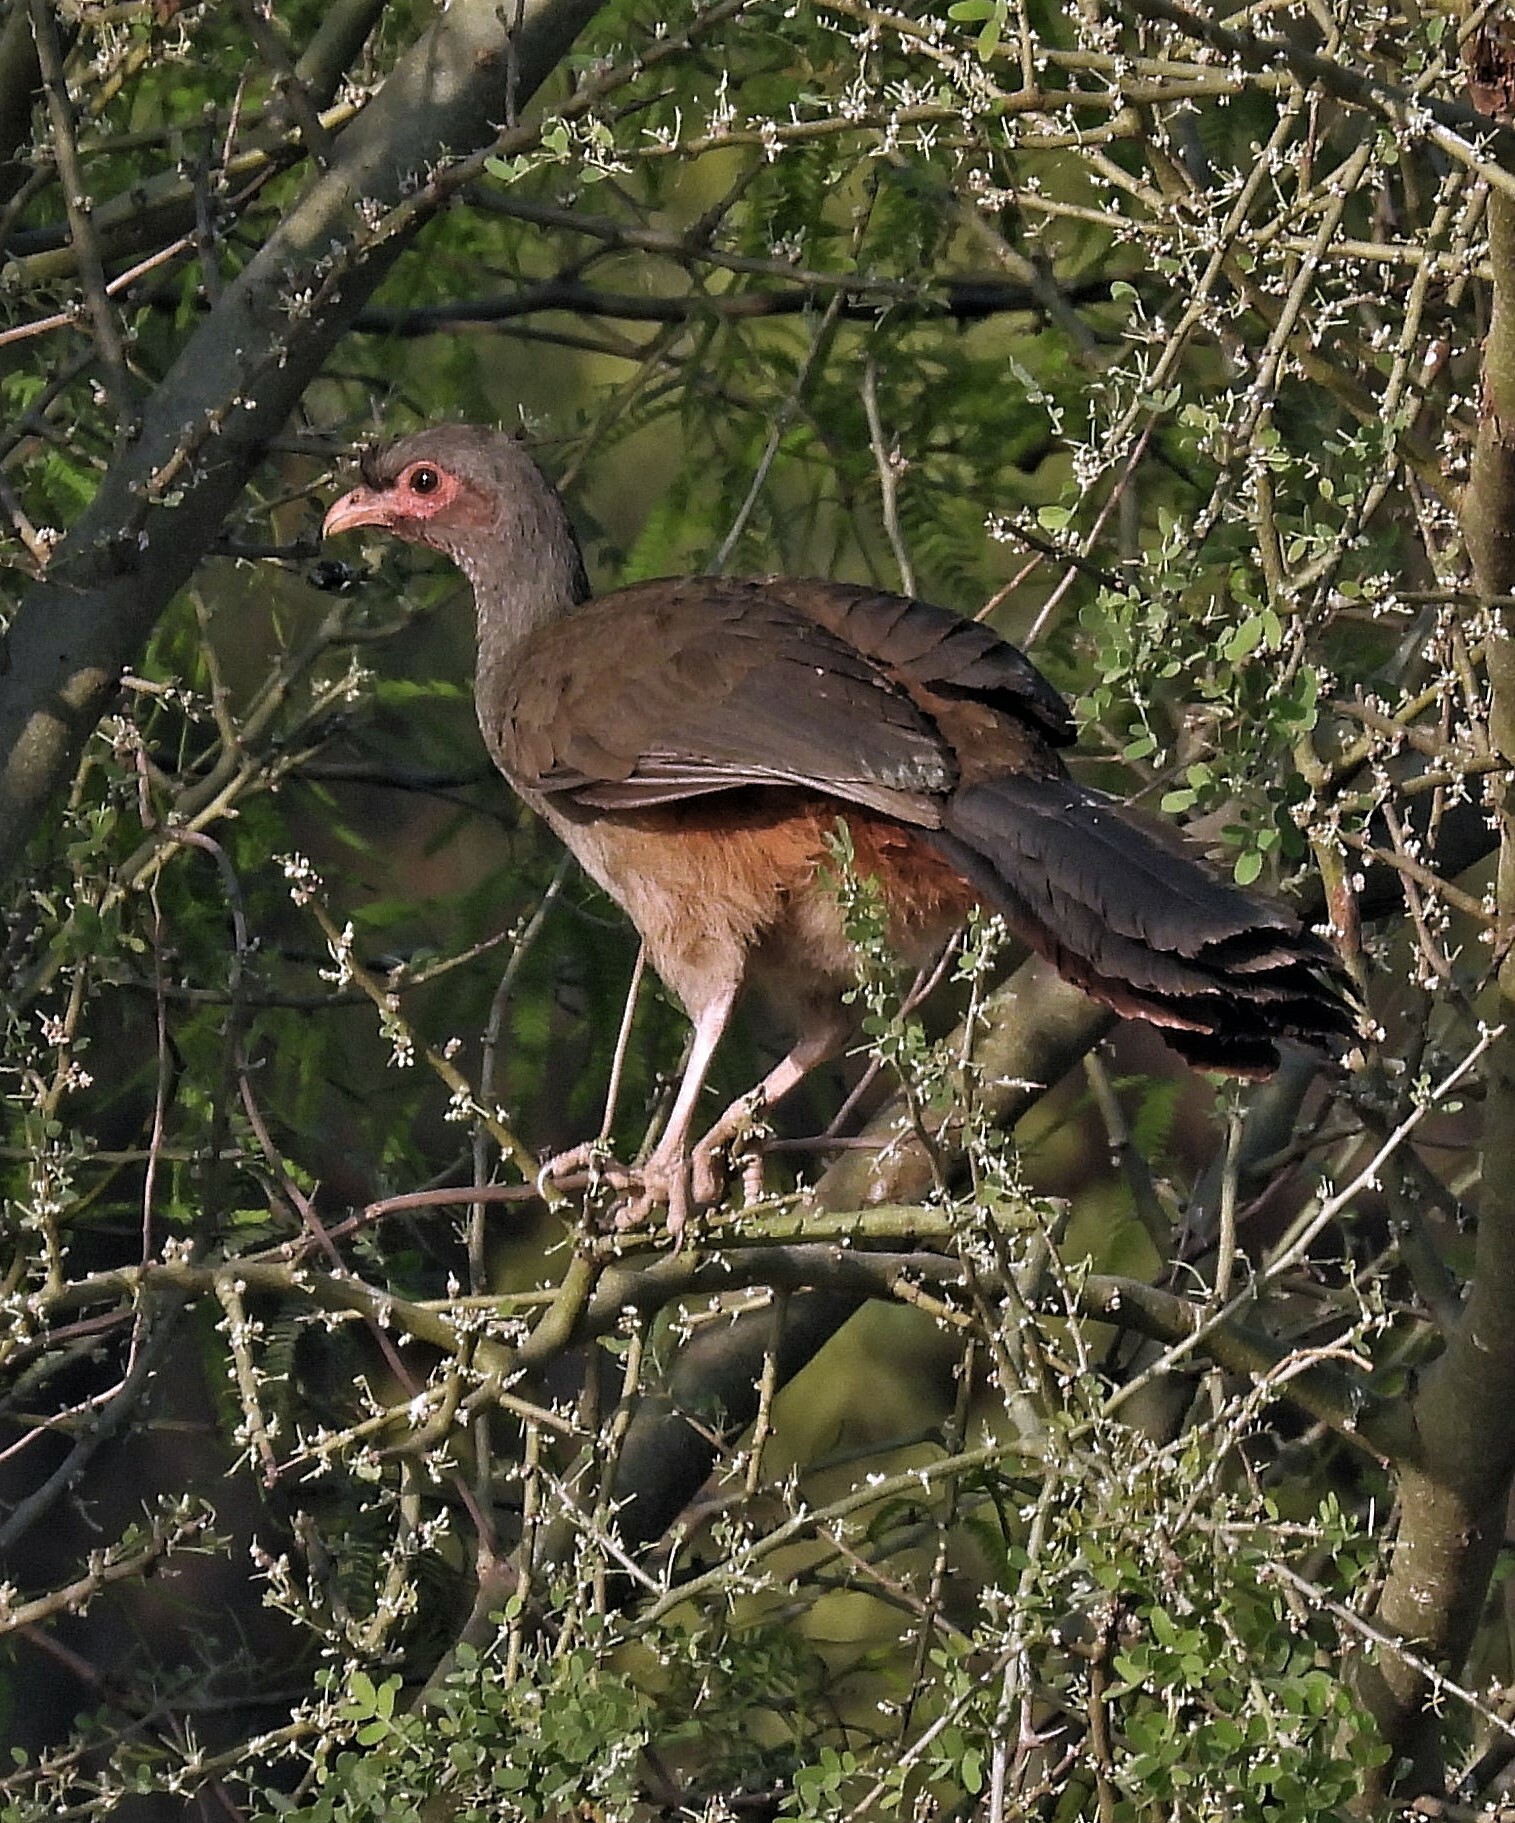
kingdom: Animalia
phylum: Chordata
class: Aves
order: Galliformes
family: Cracidae
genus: Ortalis
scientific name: Ortalis canicollis
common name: Chaco chachalaca
